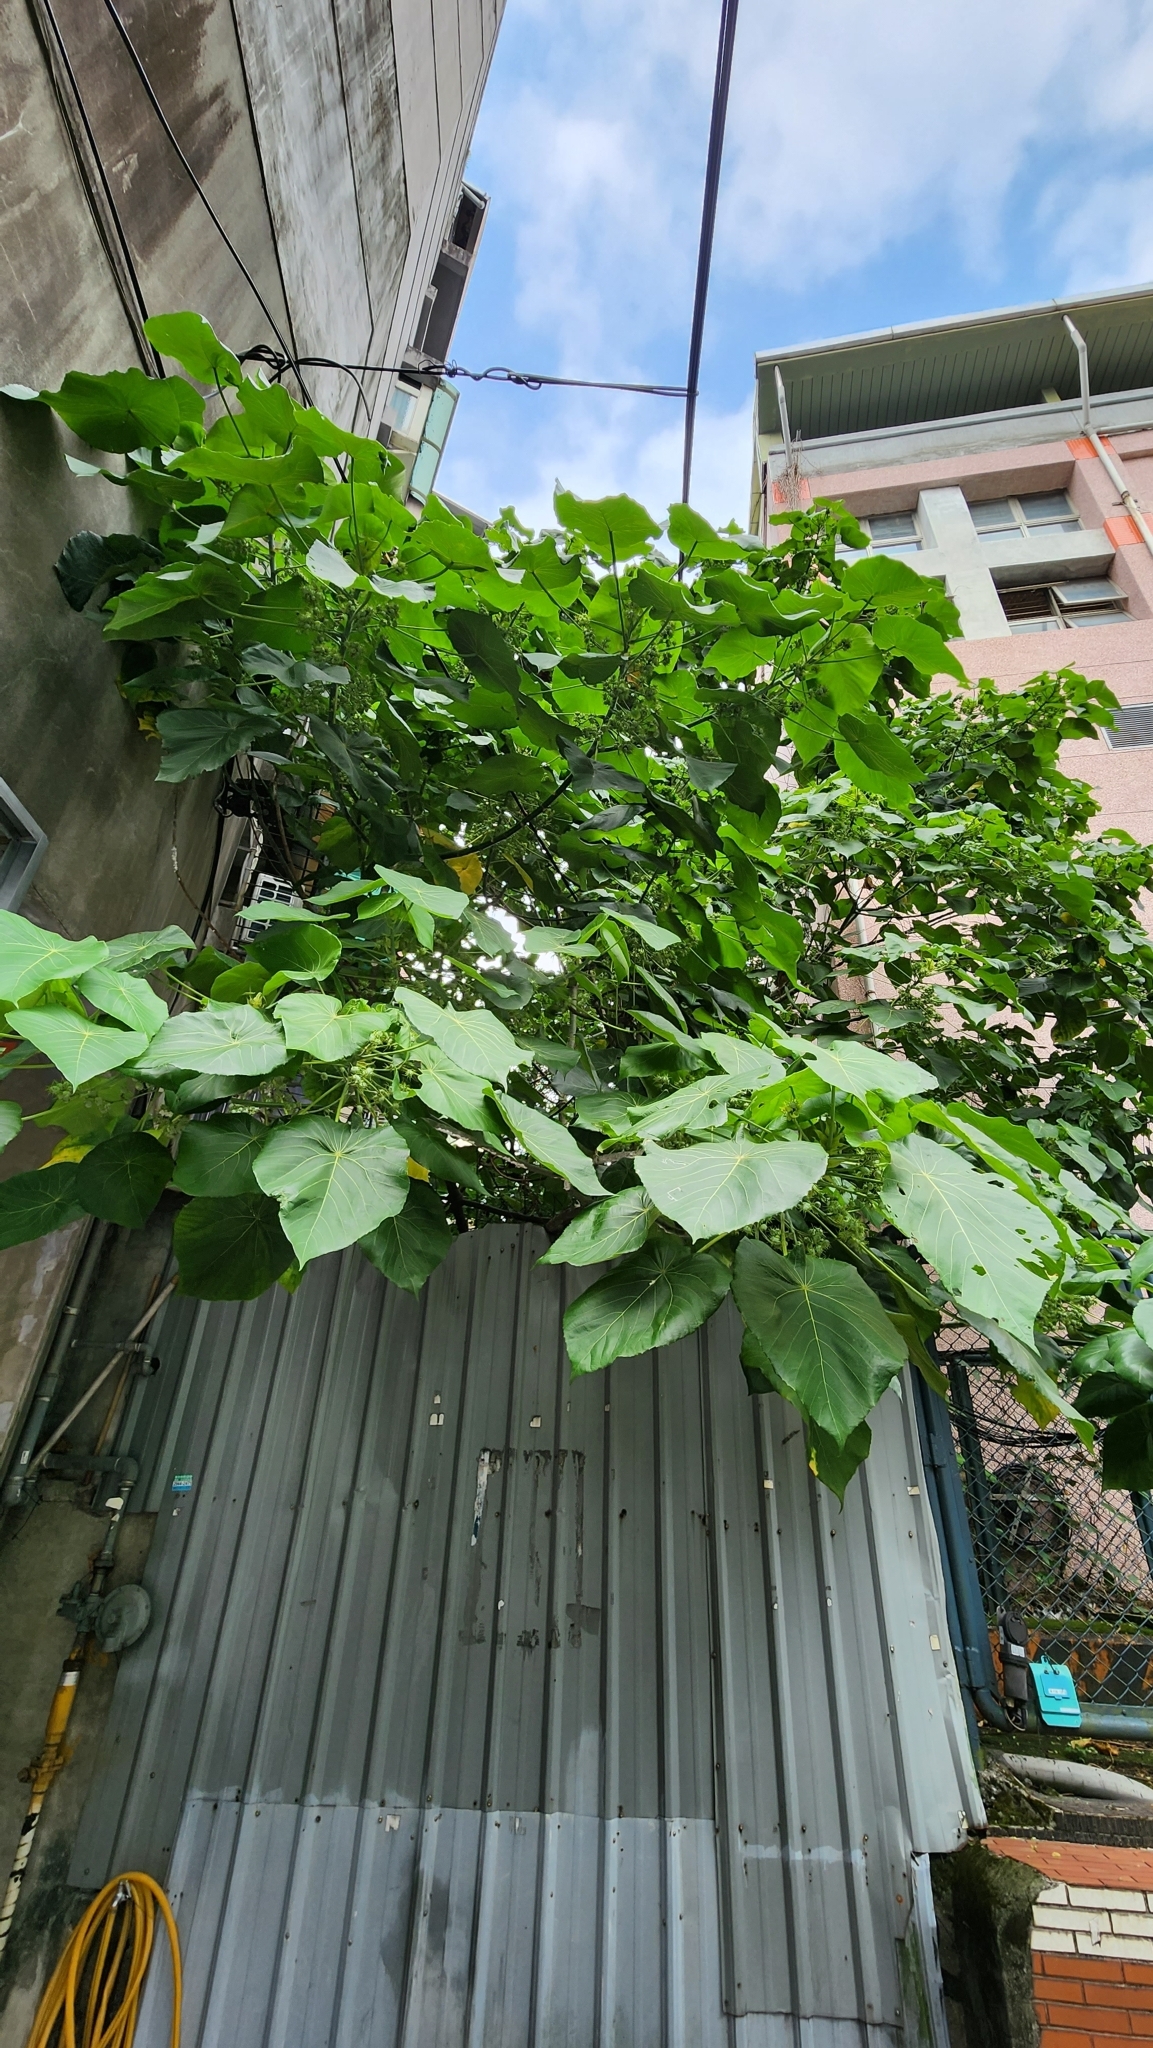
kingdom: Plantae
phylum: Tracheophyta
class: Magnoliopsida
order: Malpighiales
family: Euphorbiaceae
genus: Macaranga
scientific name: Macaranga tanarius
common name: Parasol leaf tree
